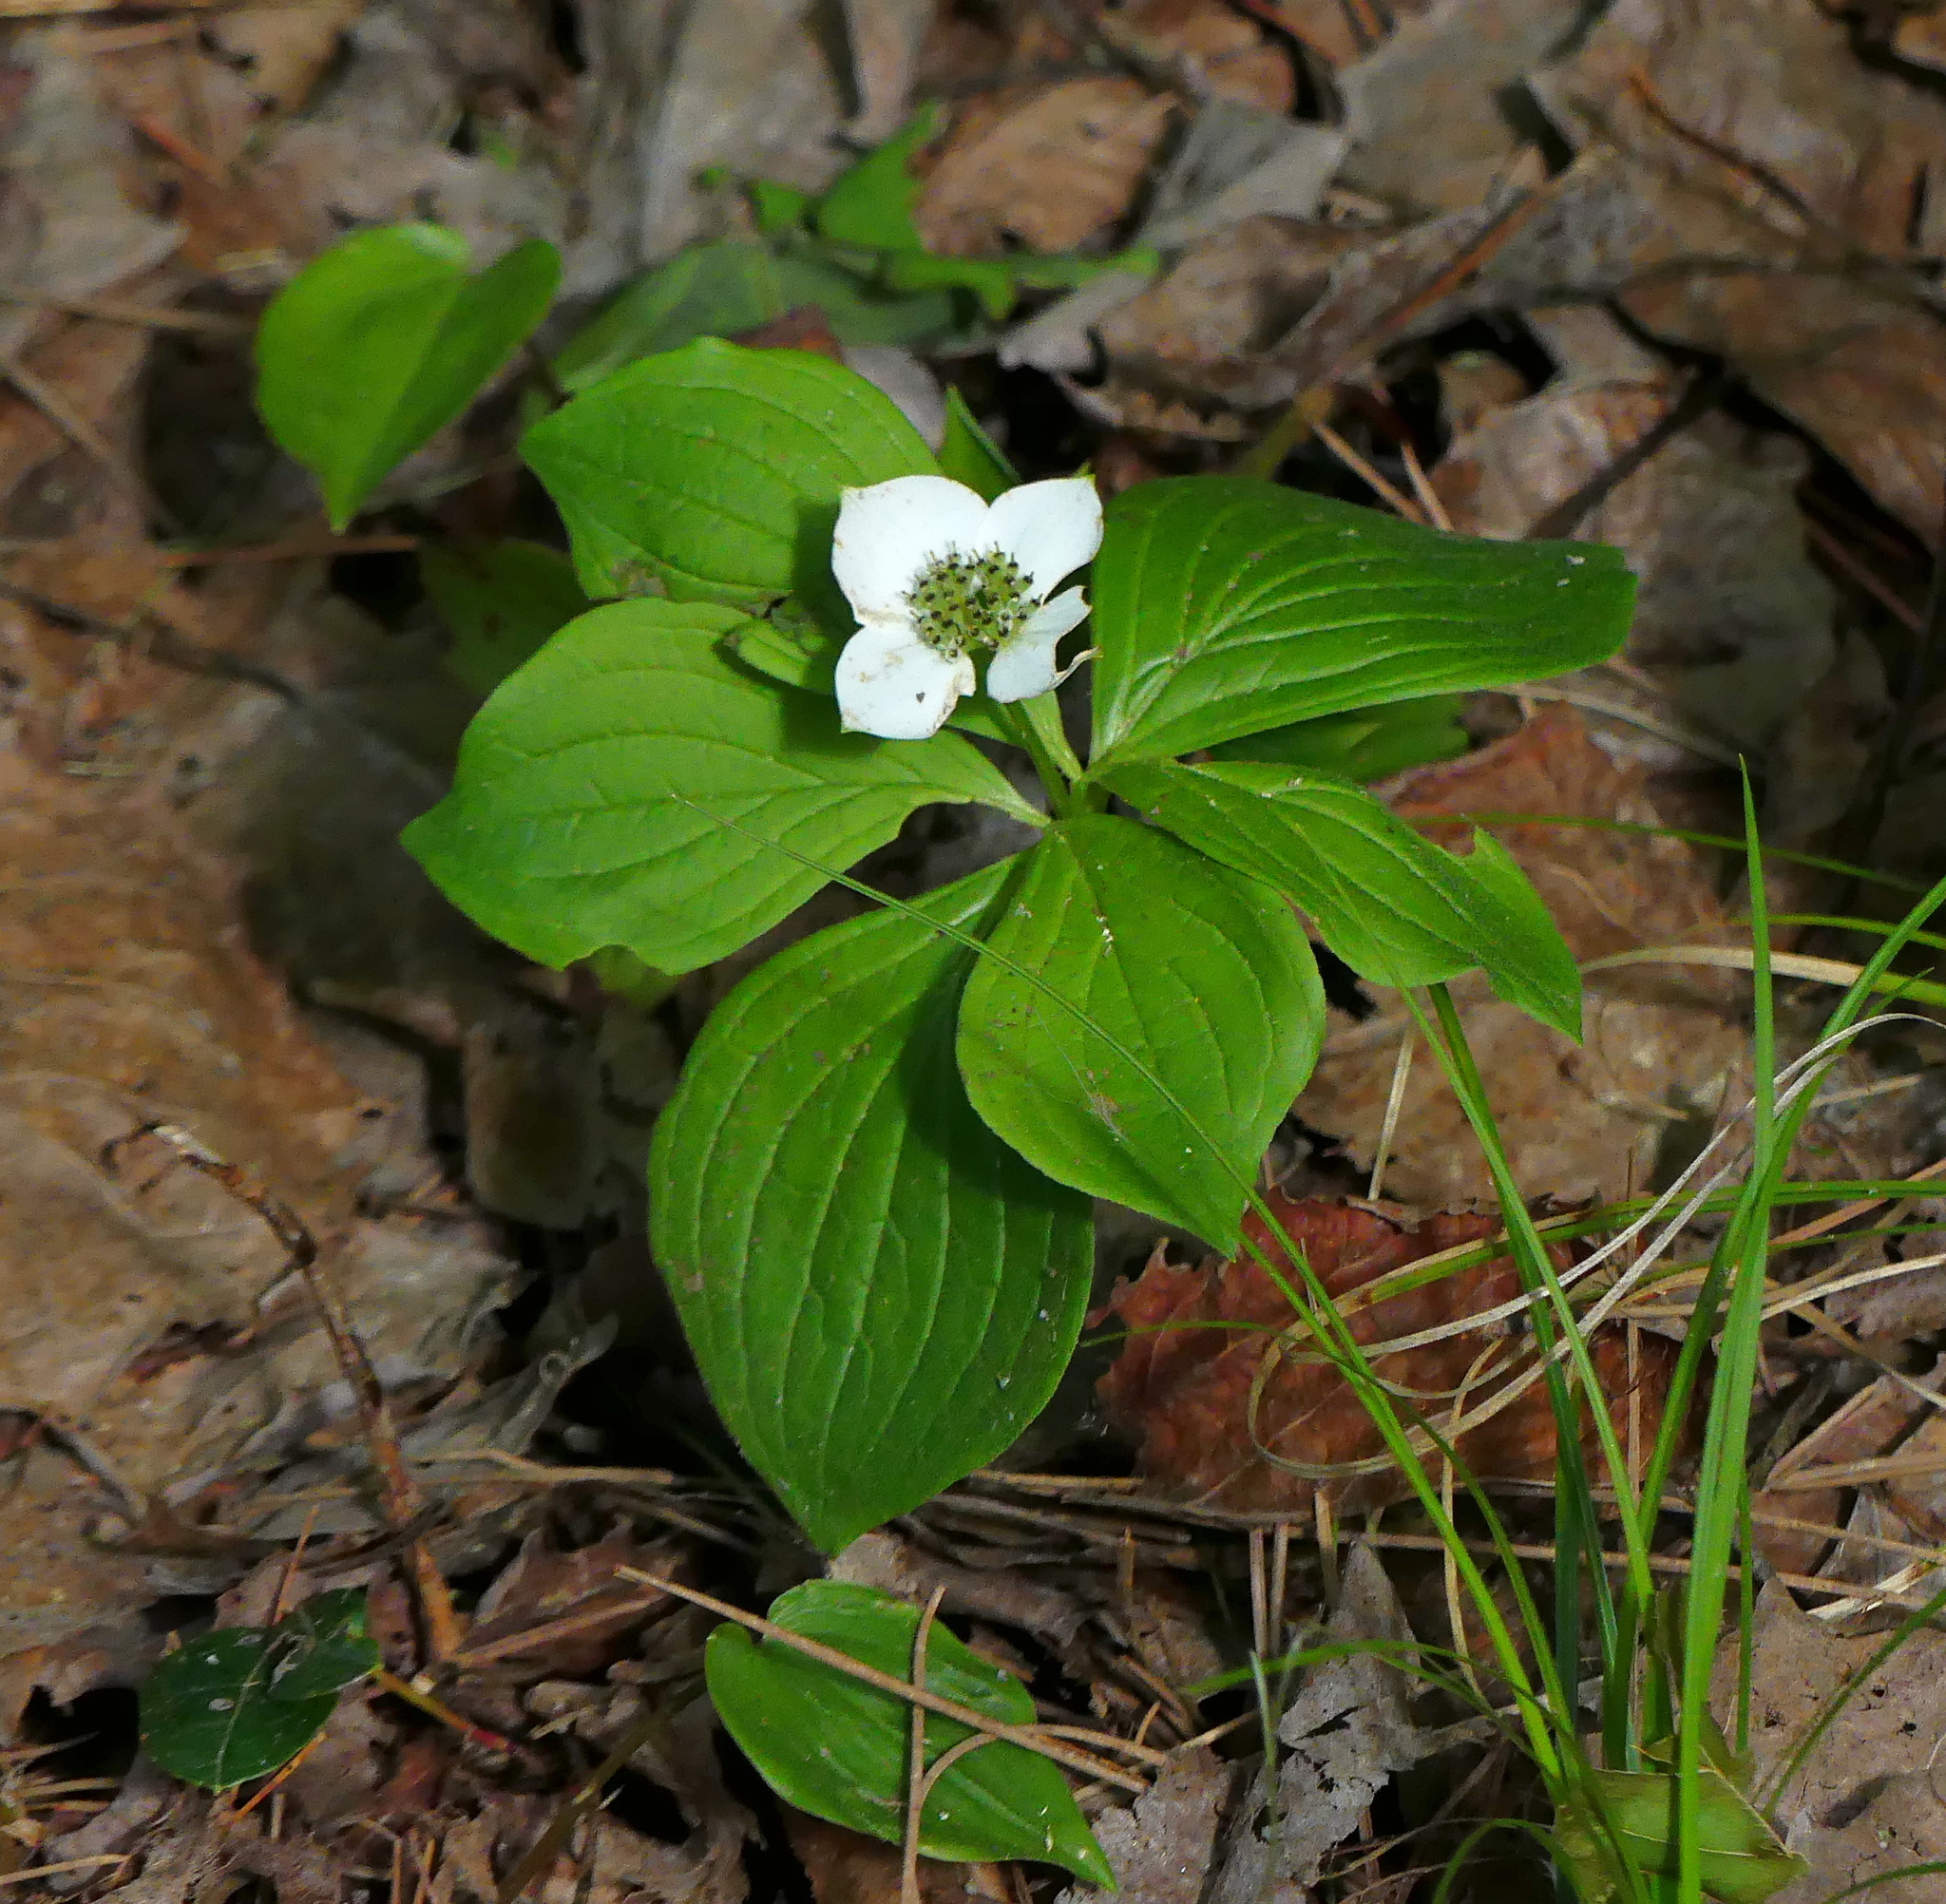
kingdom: Plantae
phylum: Tracheophyta
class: Magnoliopsida
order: Cornales
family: Cornaceae
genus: Cornus
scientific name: Cornus canadensis
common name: Creeping dogwood
